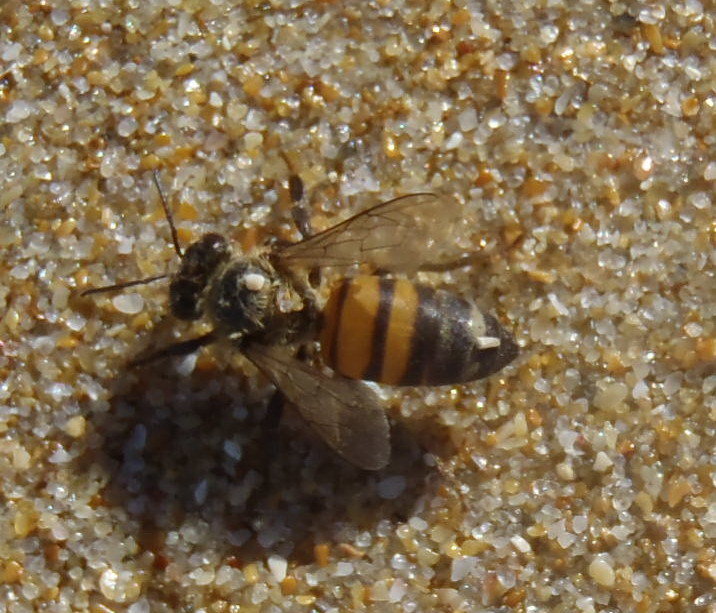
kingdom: Animalia
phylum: Arthropoda
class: Insecta
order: Hymenoptera
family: Apidae
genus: Apis
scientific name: Apis mellifera
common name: Honey bee
